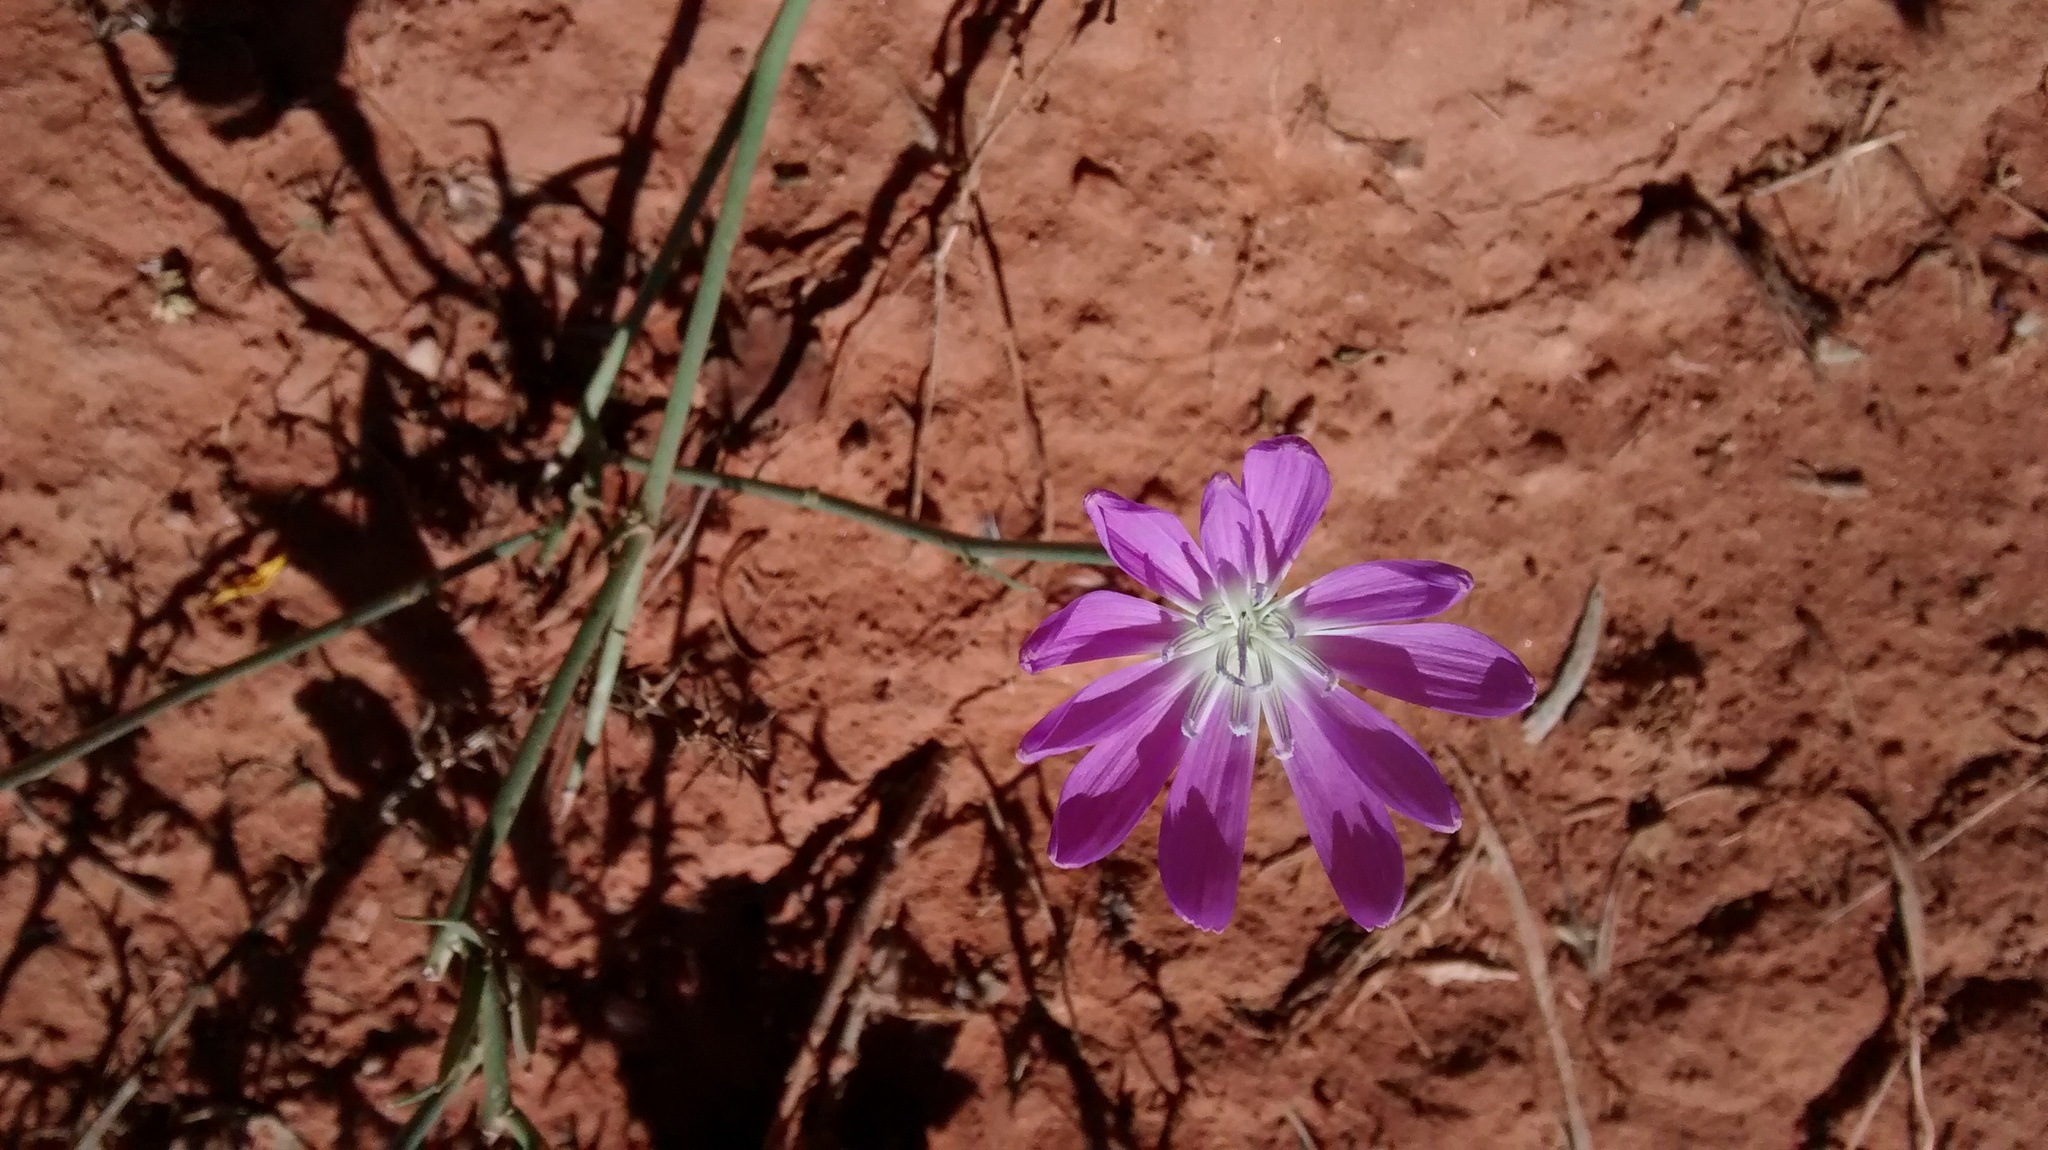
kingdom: Plantae
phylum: Tracheophyta
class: Magnoliopsida
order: Asterales
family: Asteraceae
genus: Lygodesmia
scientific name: Lygodesmia texana
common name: Texas skeleton-plant
